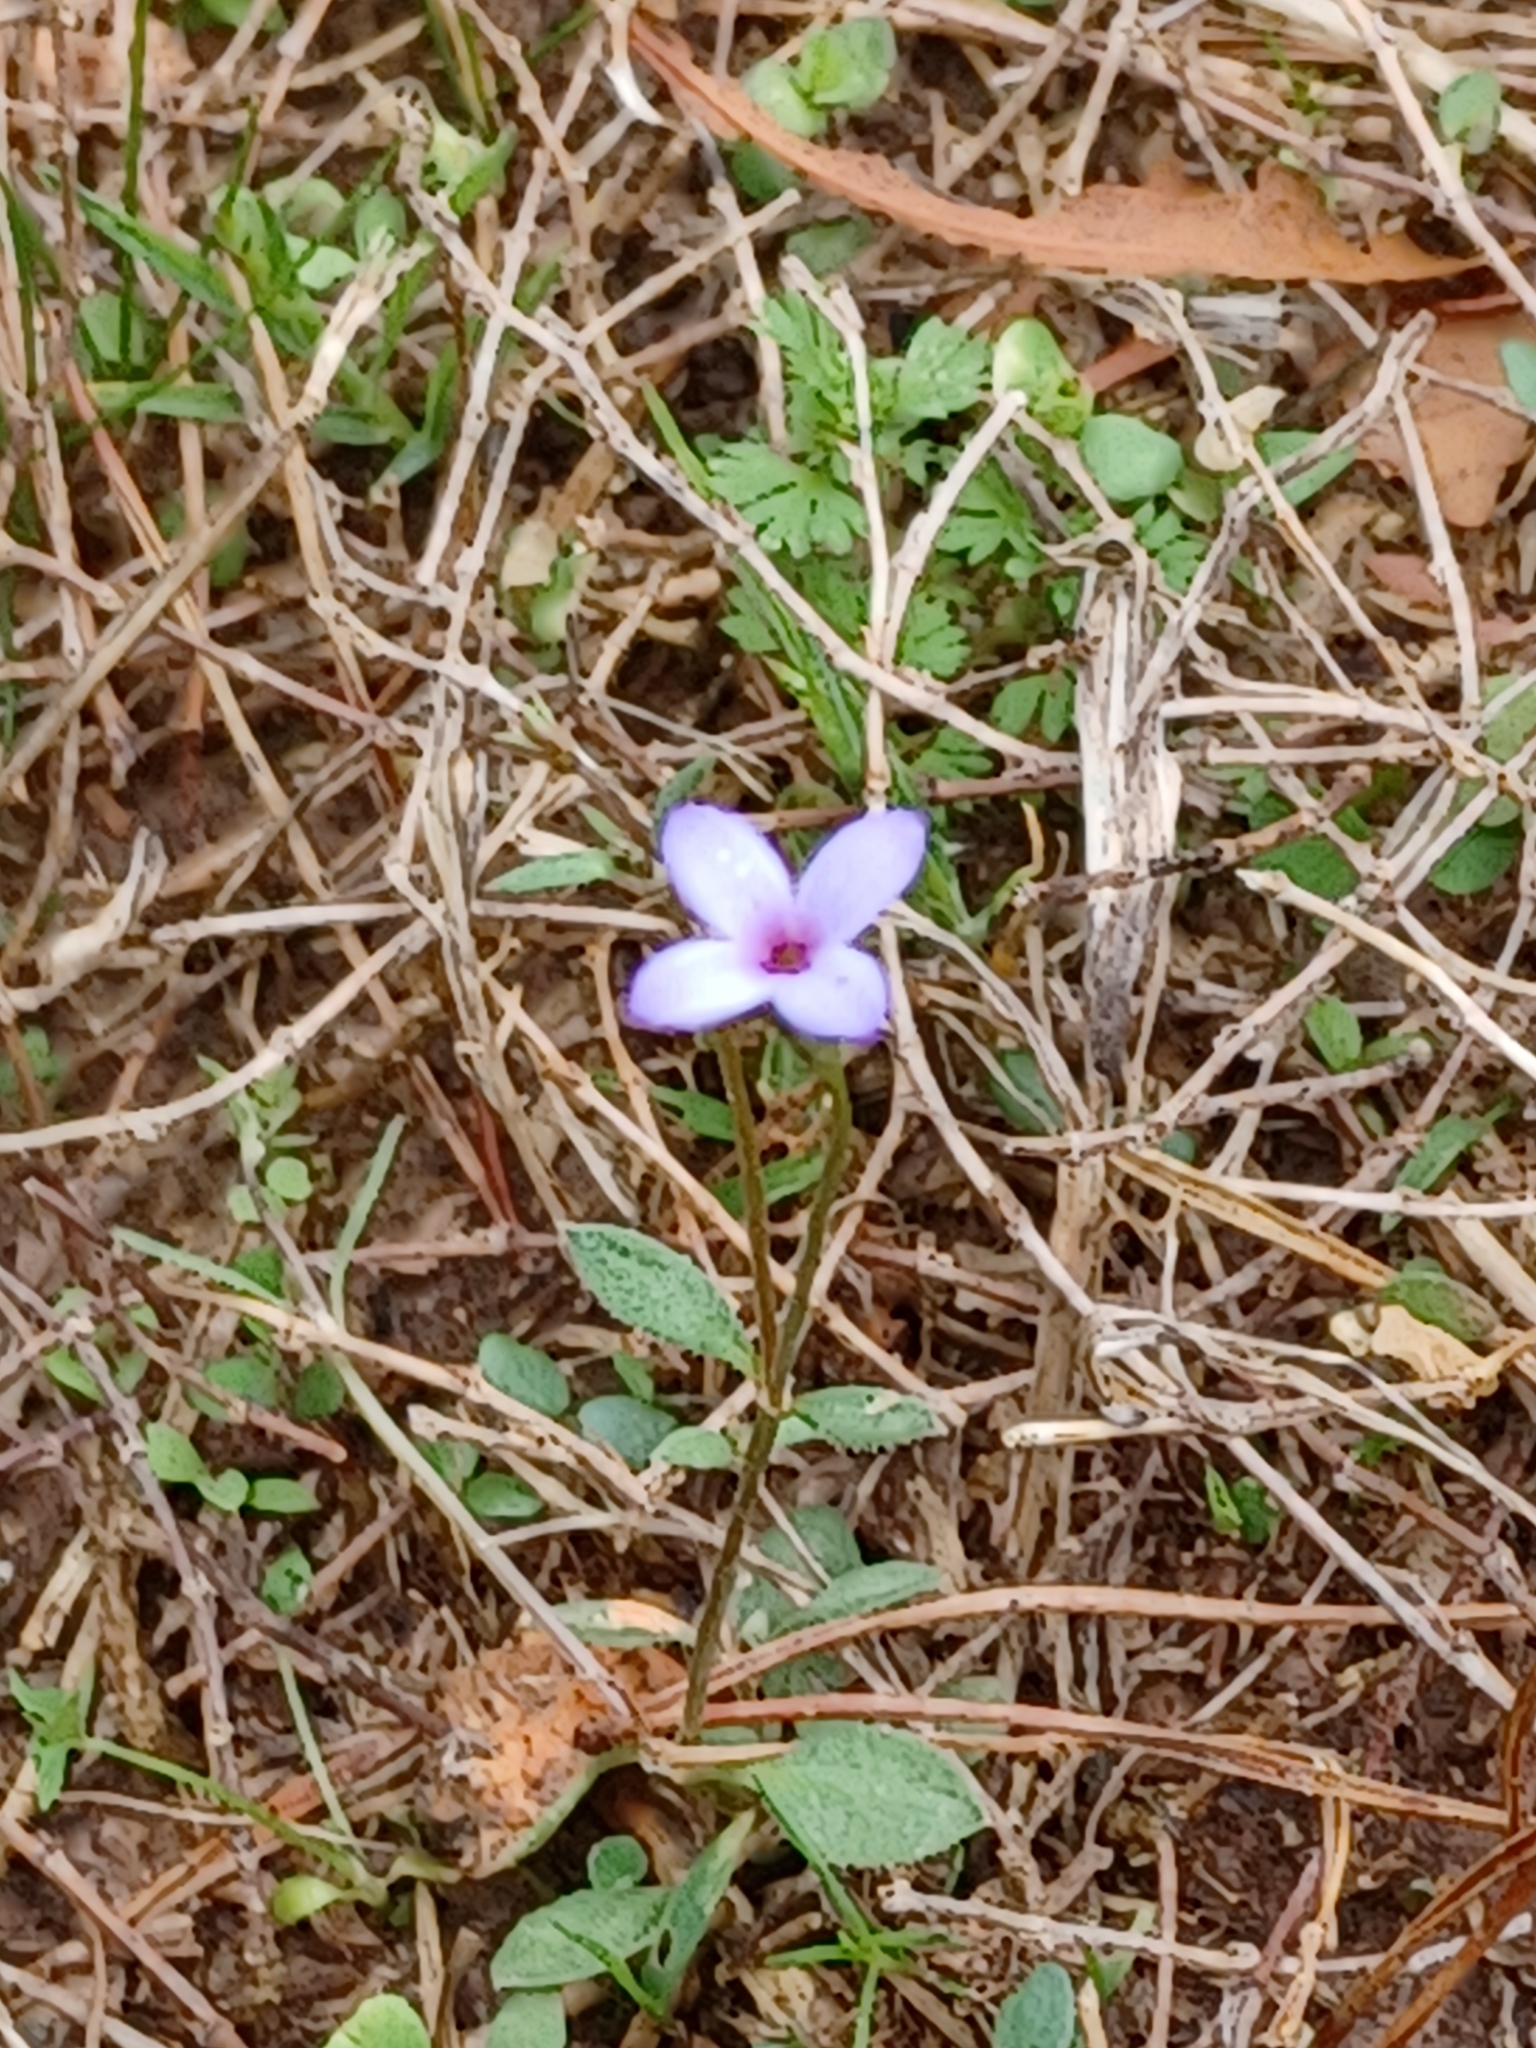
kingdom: Plantae
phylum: Tracheophyta
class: Magnoliopsida
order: Gentianales
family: Rubiaceae
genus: Houstonia
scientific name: Houstonia pusilla
